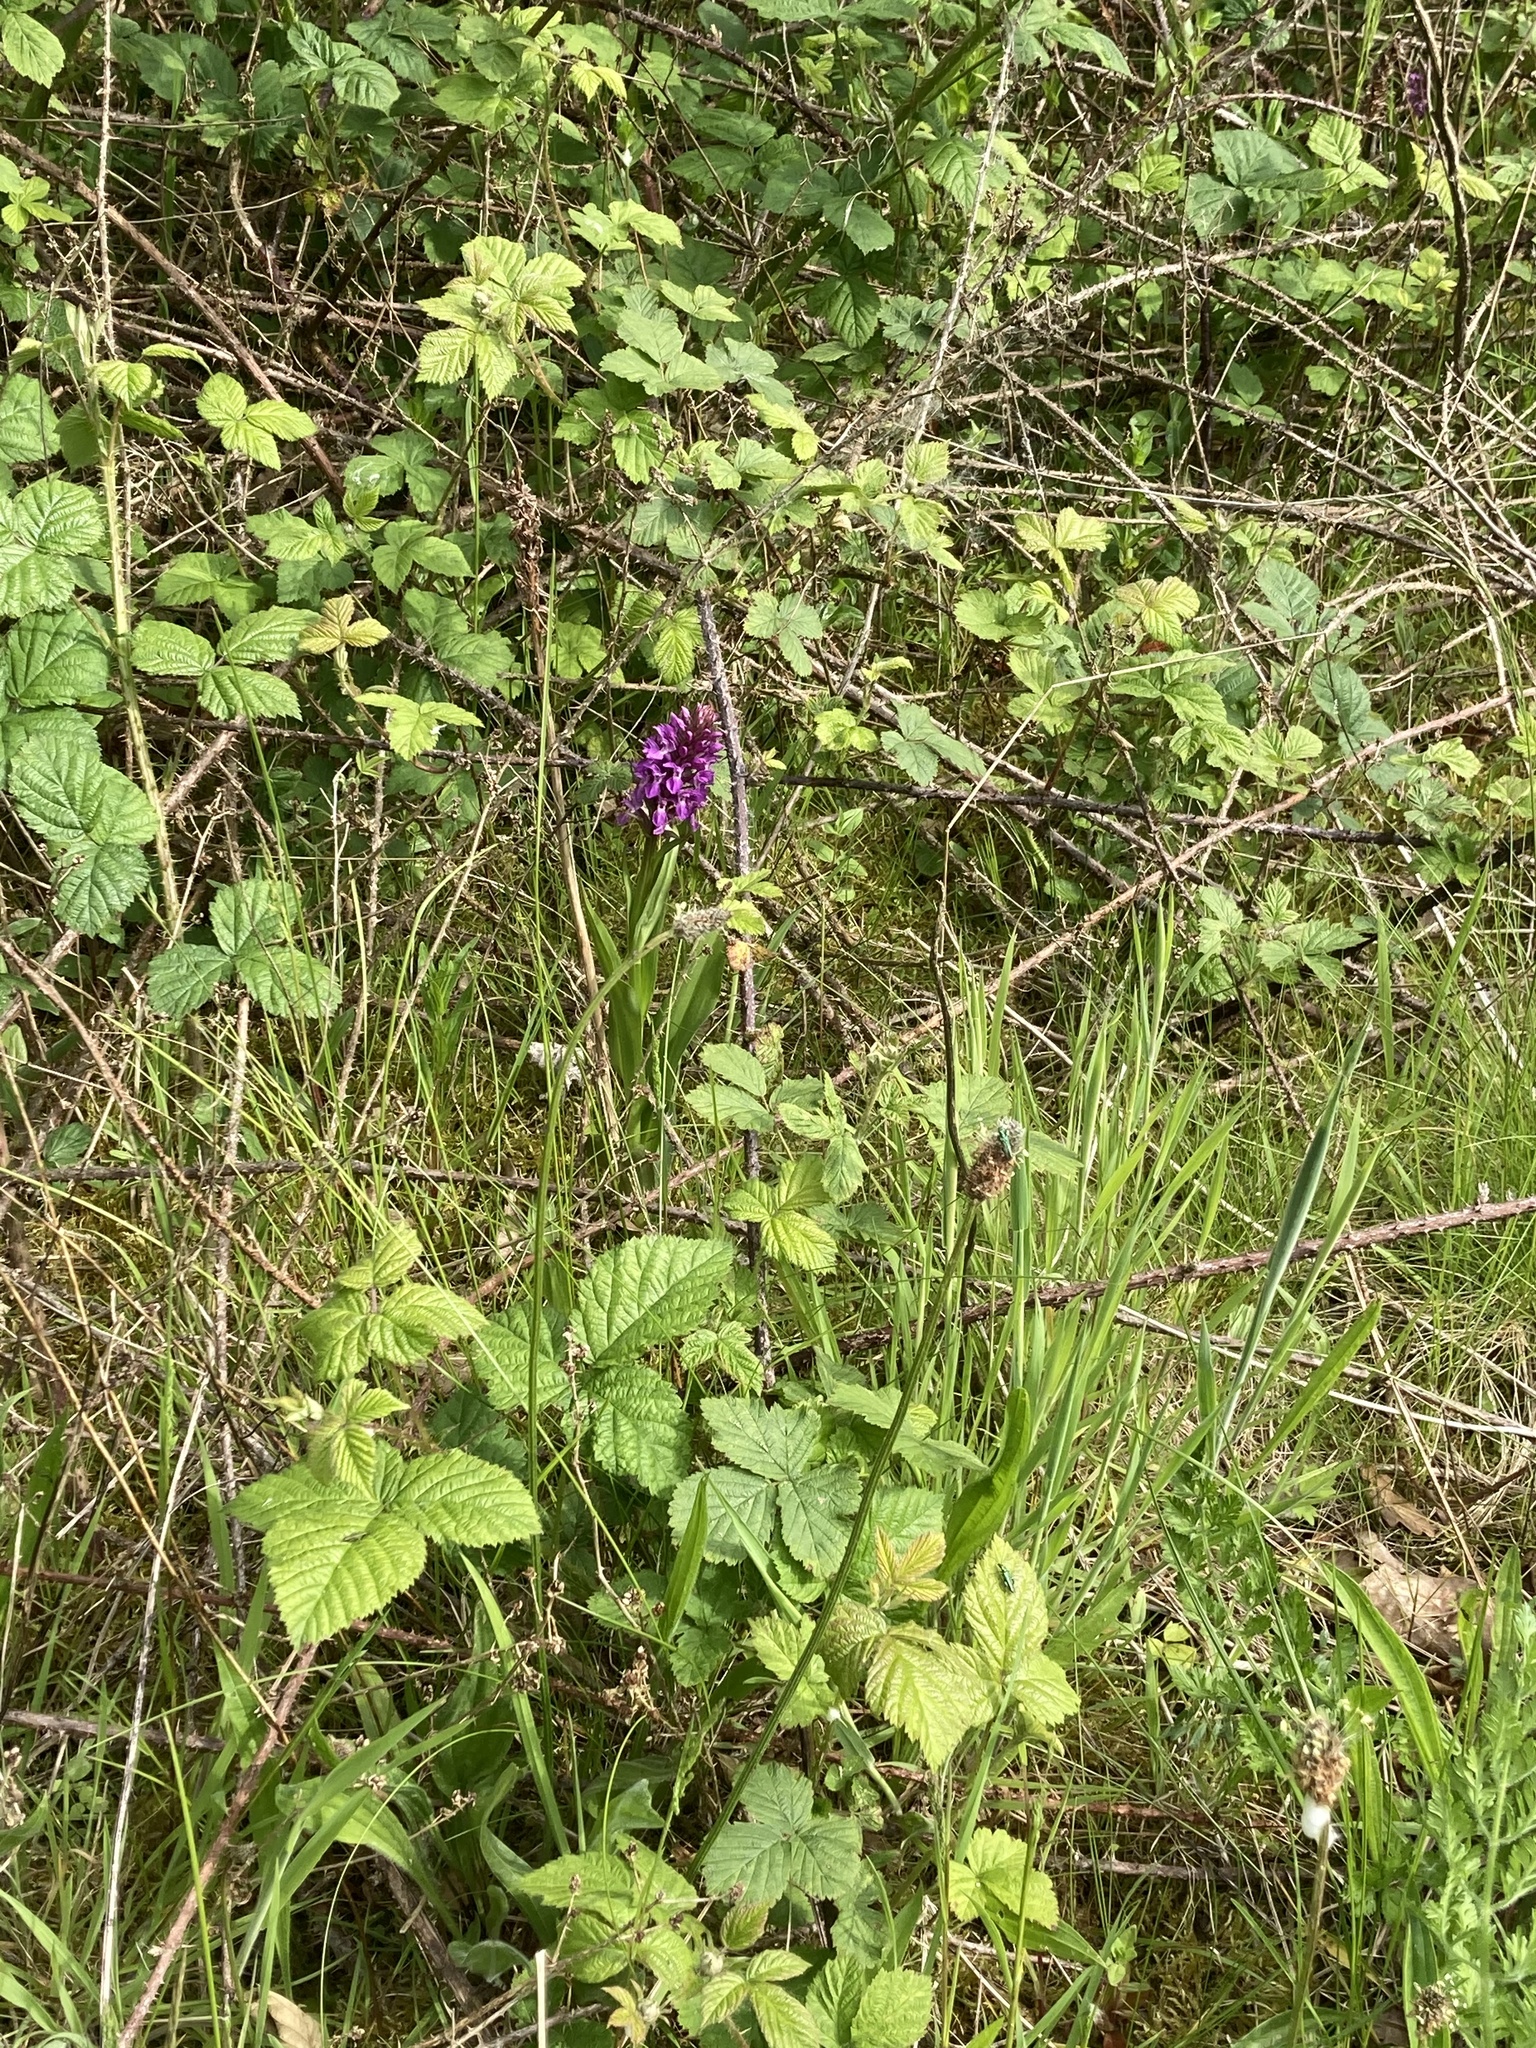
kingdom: Plantae
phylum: Tracheophyta
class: Liliopsida
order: Asparagales
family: Orchidaceae
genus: Dactylorhiza
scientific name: Dactylorhiza majalis
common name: Marsh orchid
